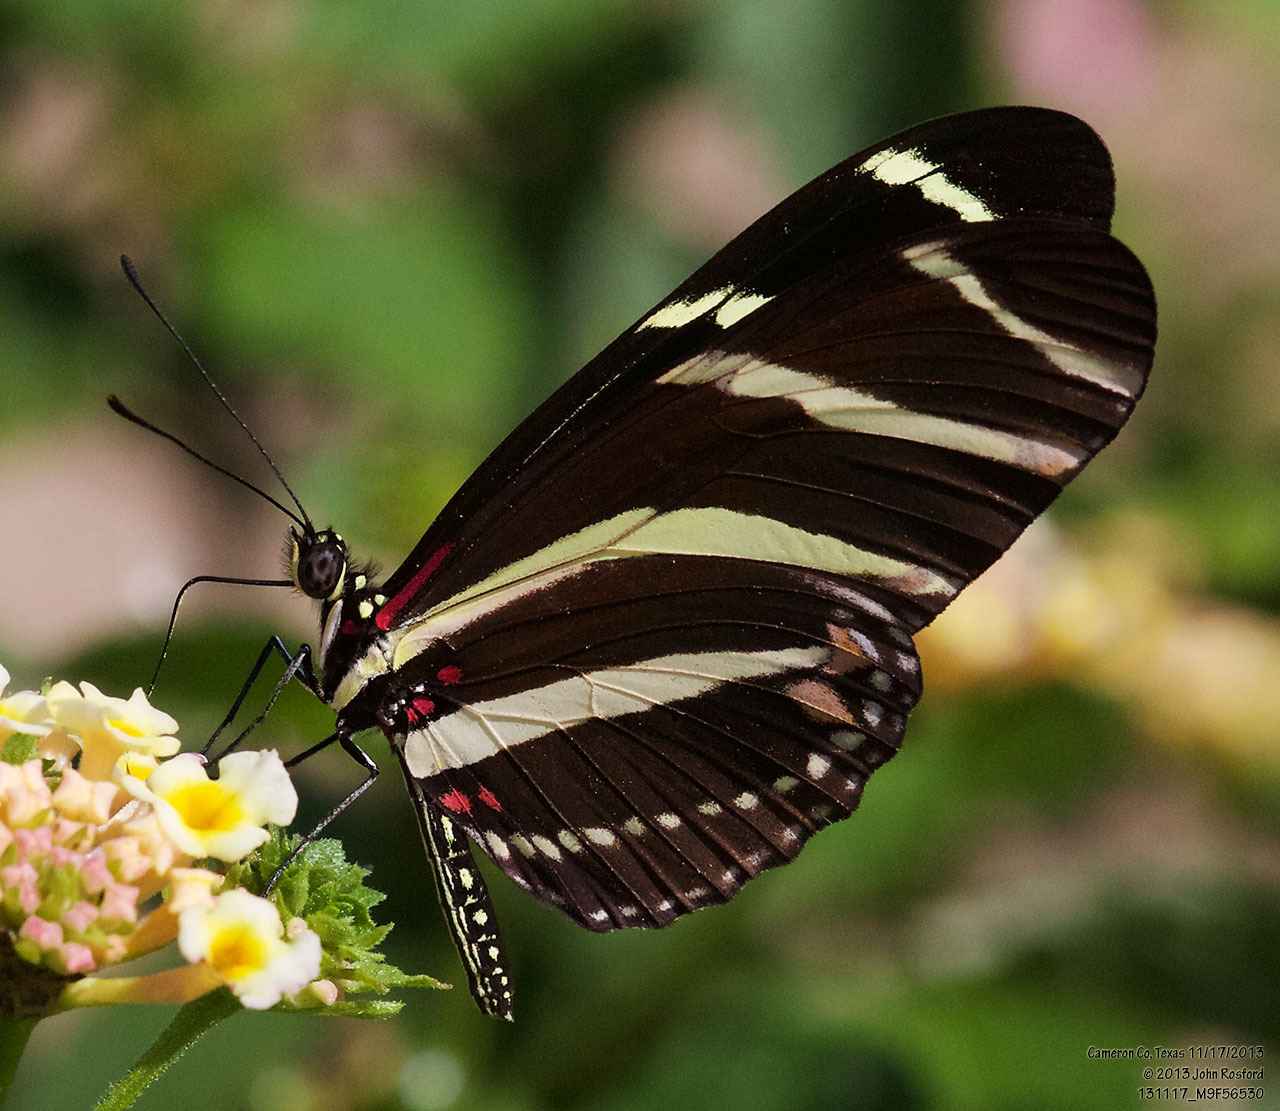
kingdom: Animalia
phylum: Arthropoda
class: Insecta
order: Lepidoptera
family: Nymphalidae
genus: Heliconius
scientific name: Heliconius charithonia
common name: Zebra long wing
